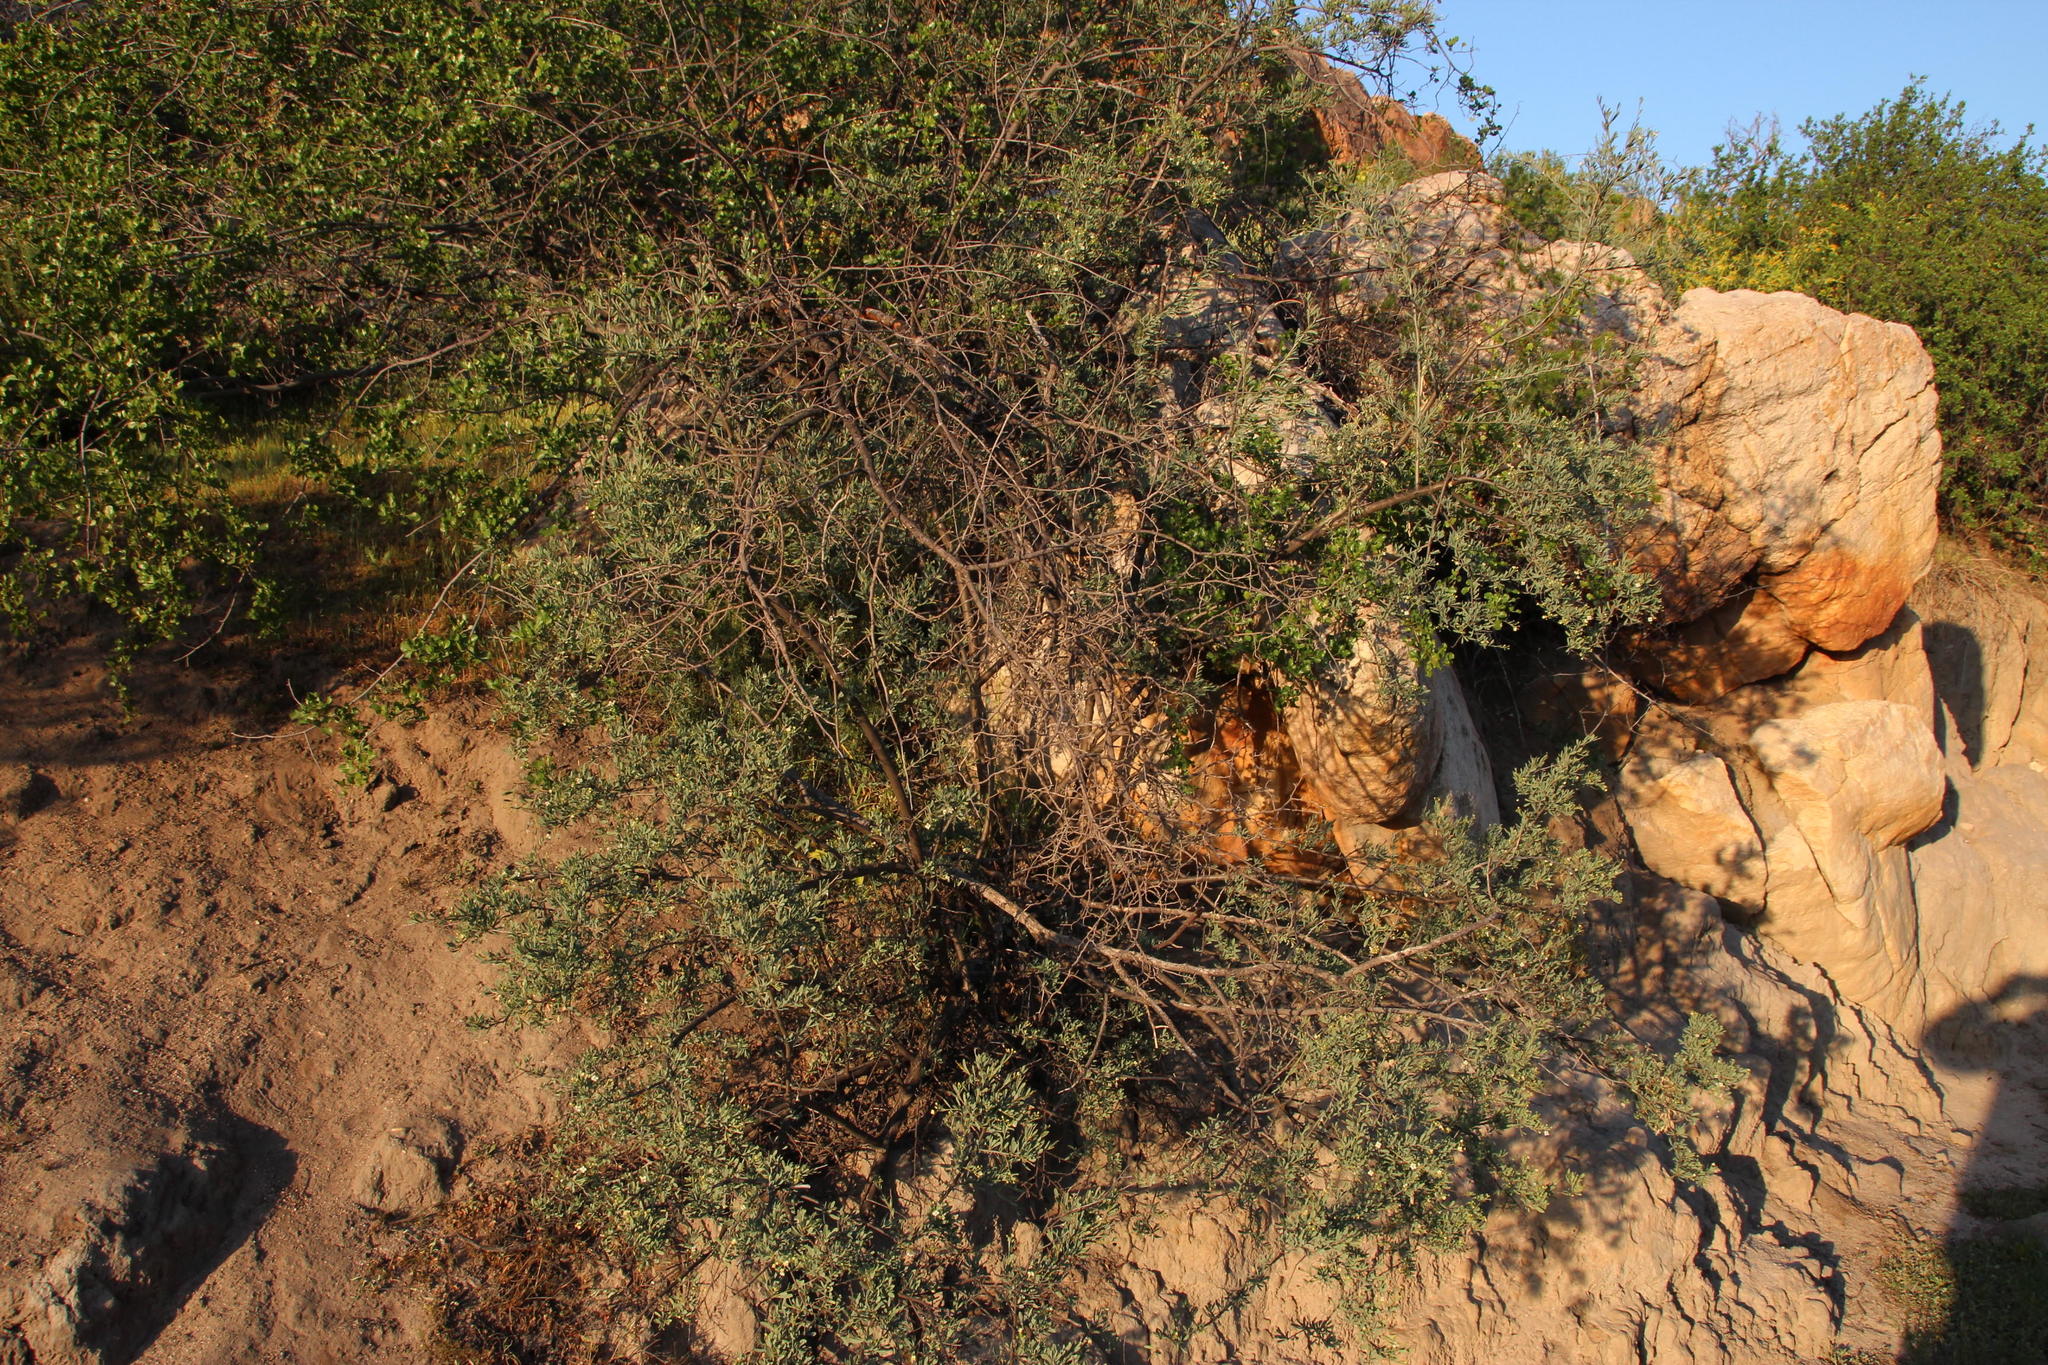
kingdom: Plantae
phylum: Tracheophyta
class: Magnoliopsida
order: Solanales
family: Montiniaceae
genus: Montinia
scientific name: Montinia caryophyllacea
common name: Wild clove-bush
